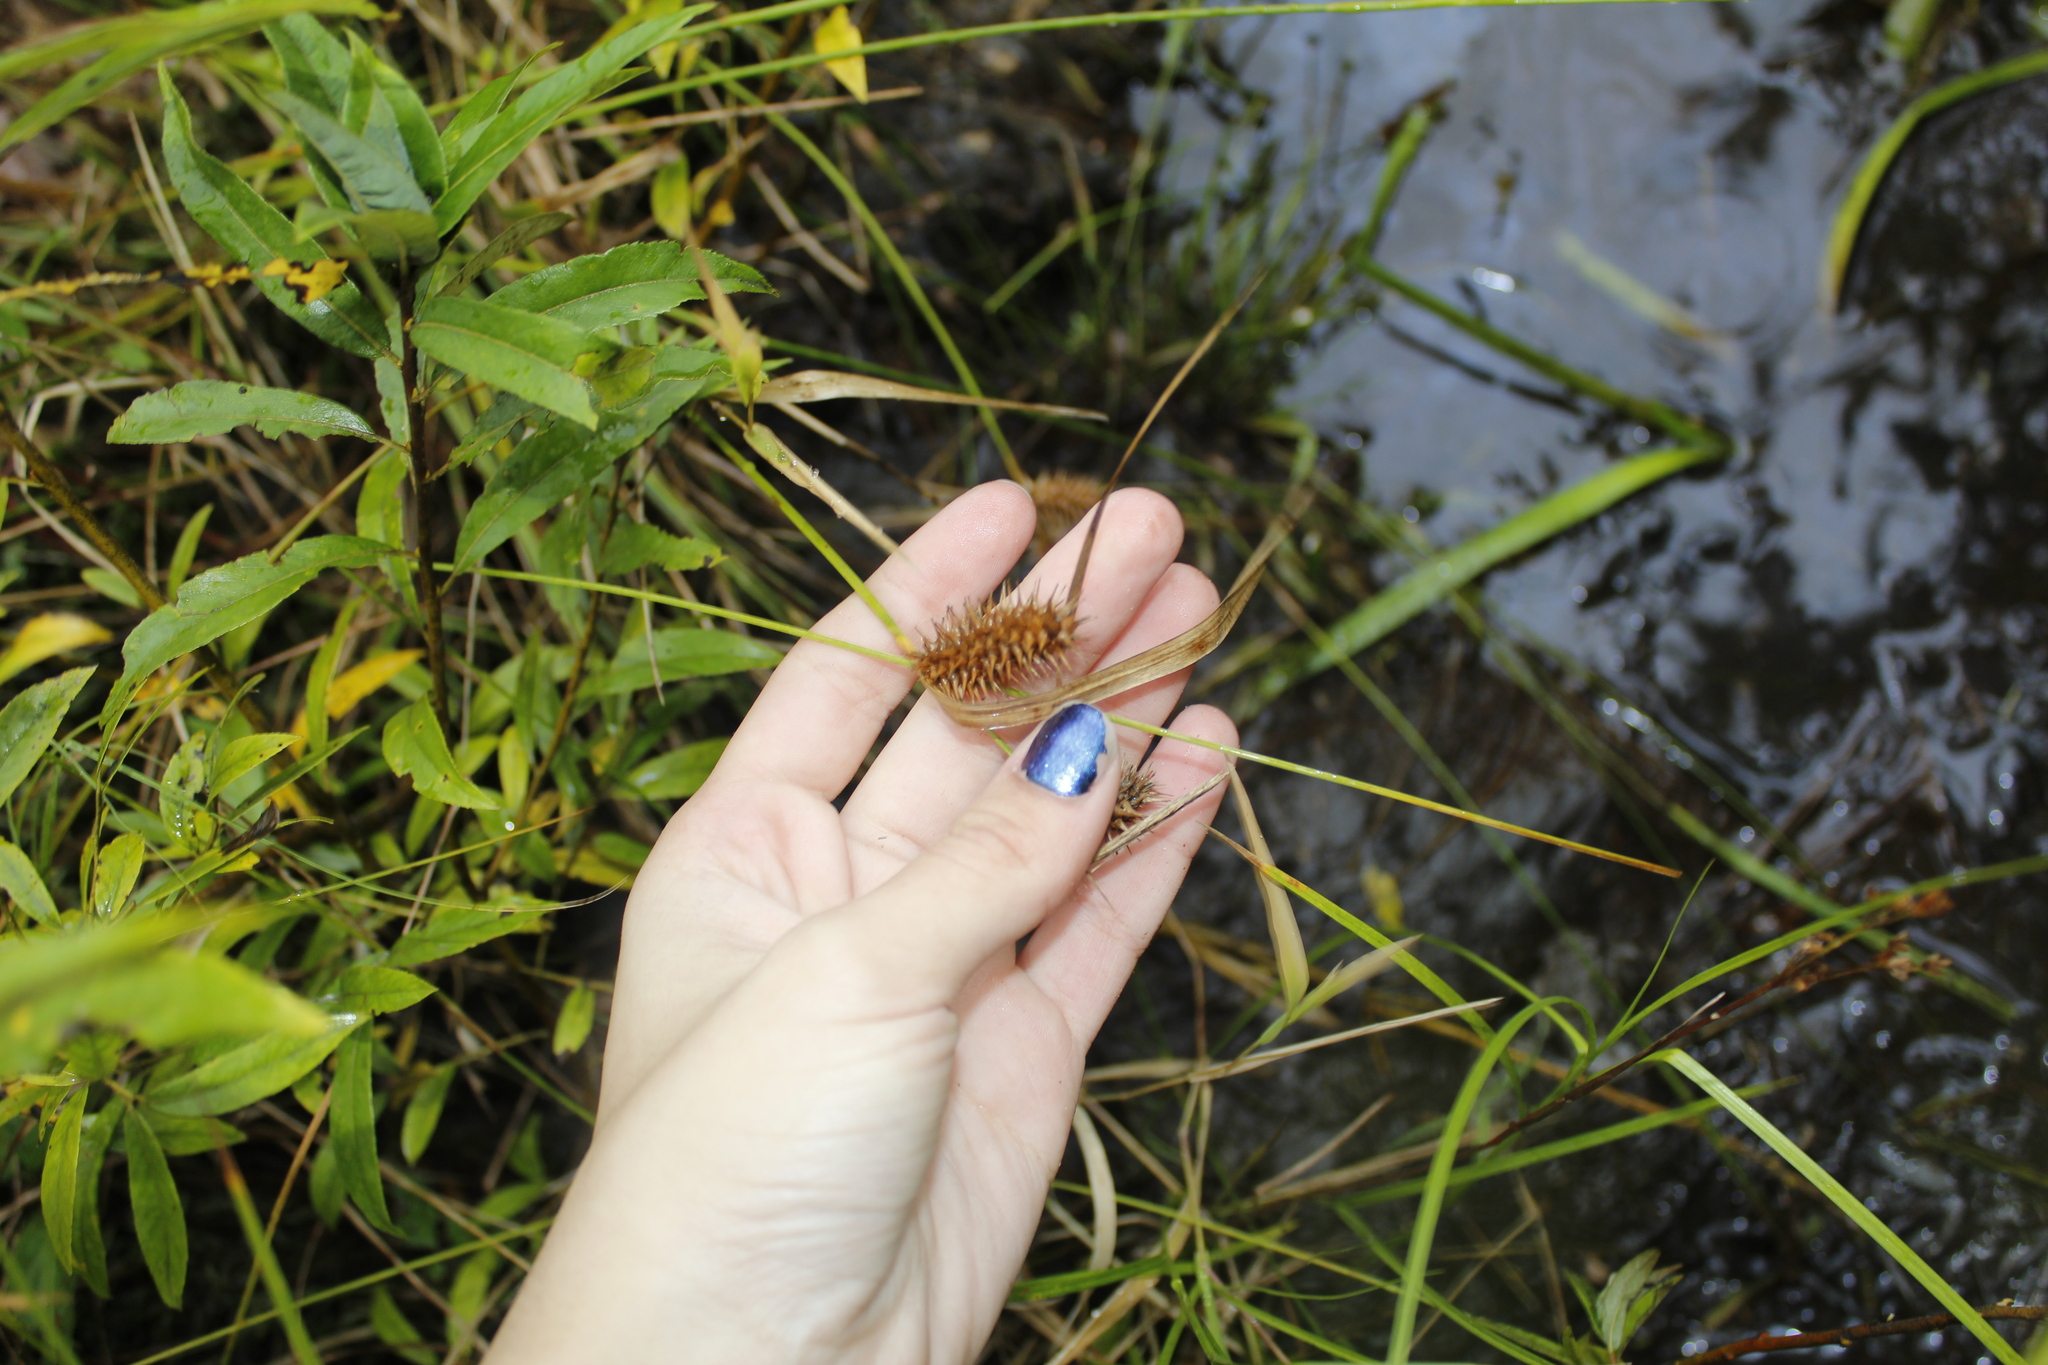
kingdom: Plantae
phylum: Tracheophyta
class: Liliopsida
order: Poales
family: Cyperaceae
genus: Carex
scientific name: Carex lurida
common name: Sallow sedge
